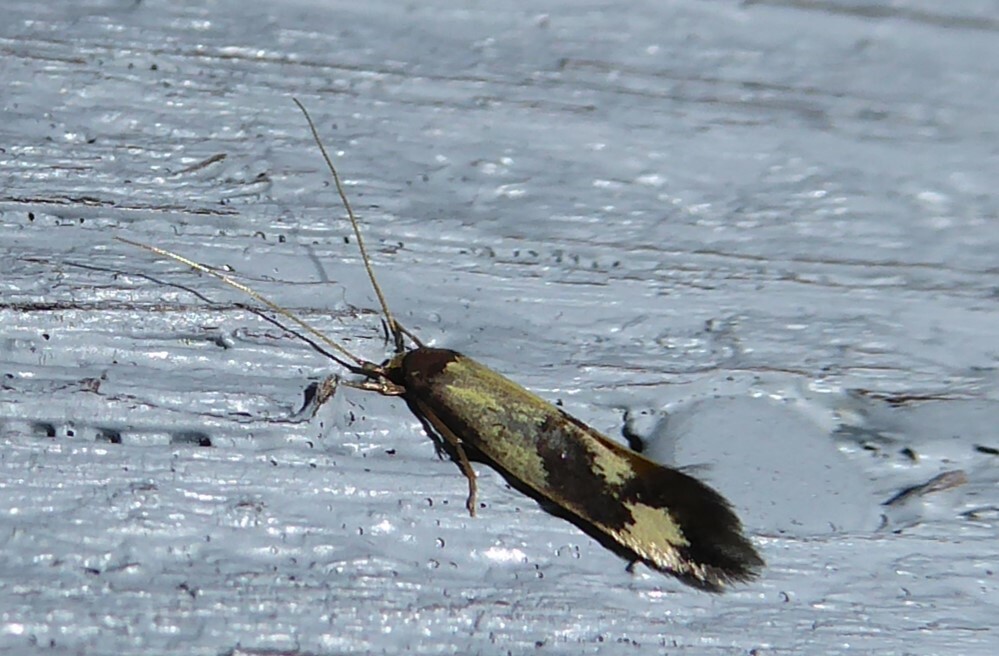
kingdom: Animalia
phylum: Arthropoda
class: Insecta
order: Lepidoptera
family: Tineidae
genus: Opogona
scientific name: Opogona comptella
